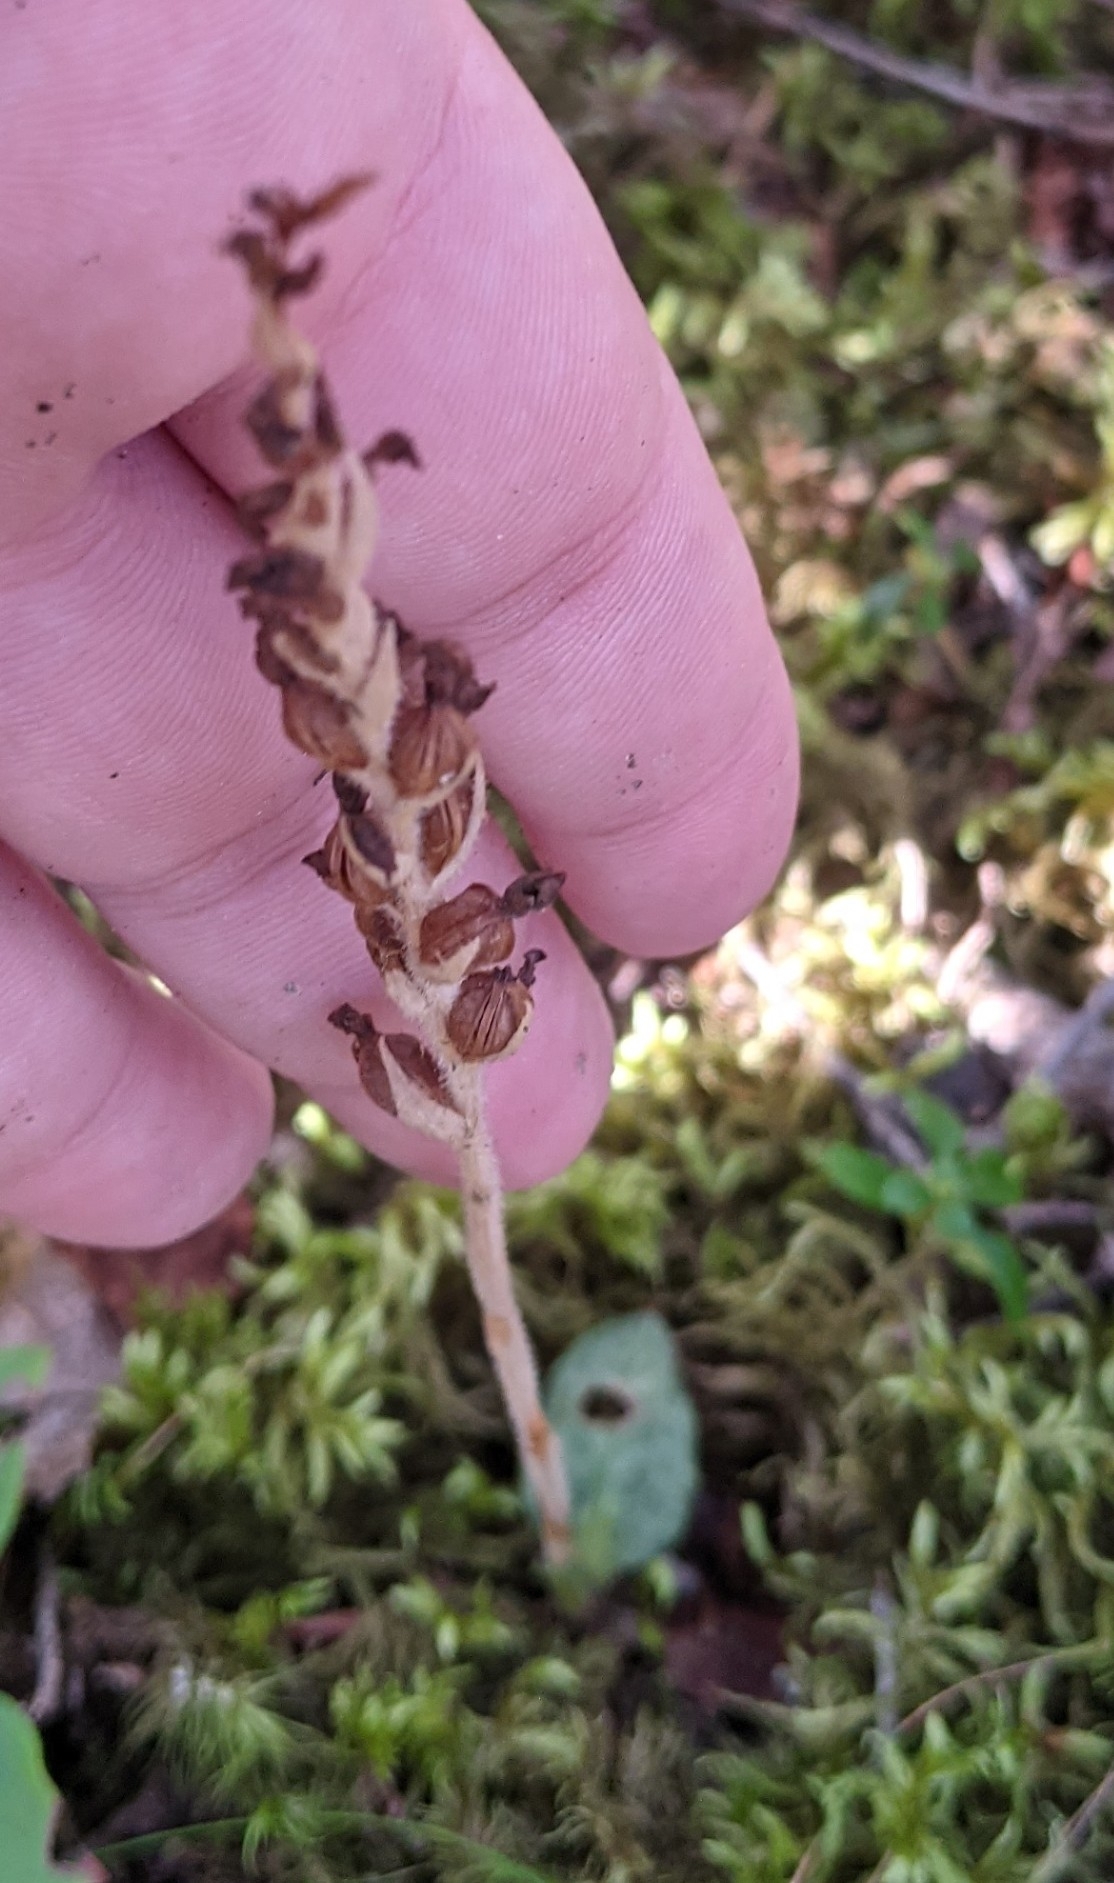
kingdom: Plantae
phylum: Tracheophyta
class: Liliopsida
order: Asparagales
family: Orchidaceae
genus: Goodyera
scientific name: Goodyera tesselata
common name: Checkered rattlesnake-plantain
